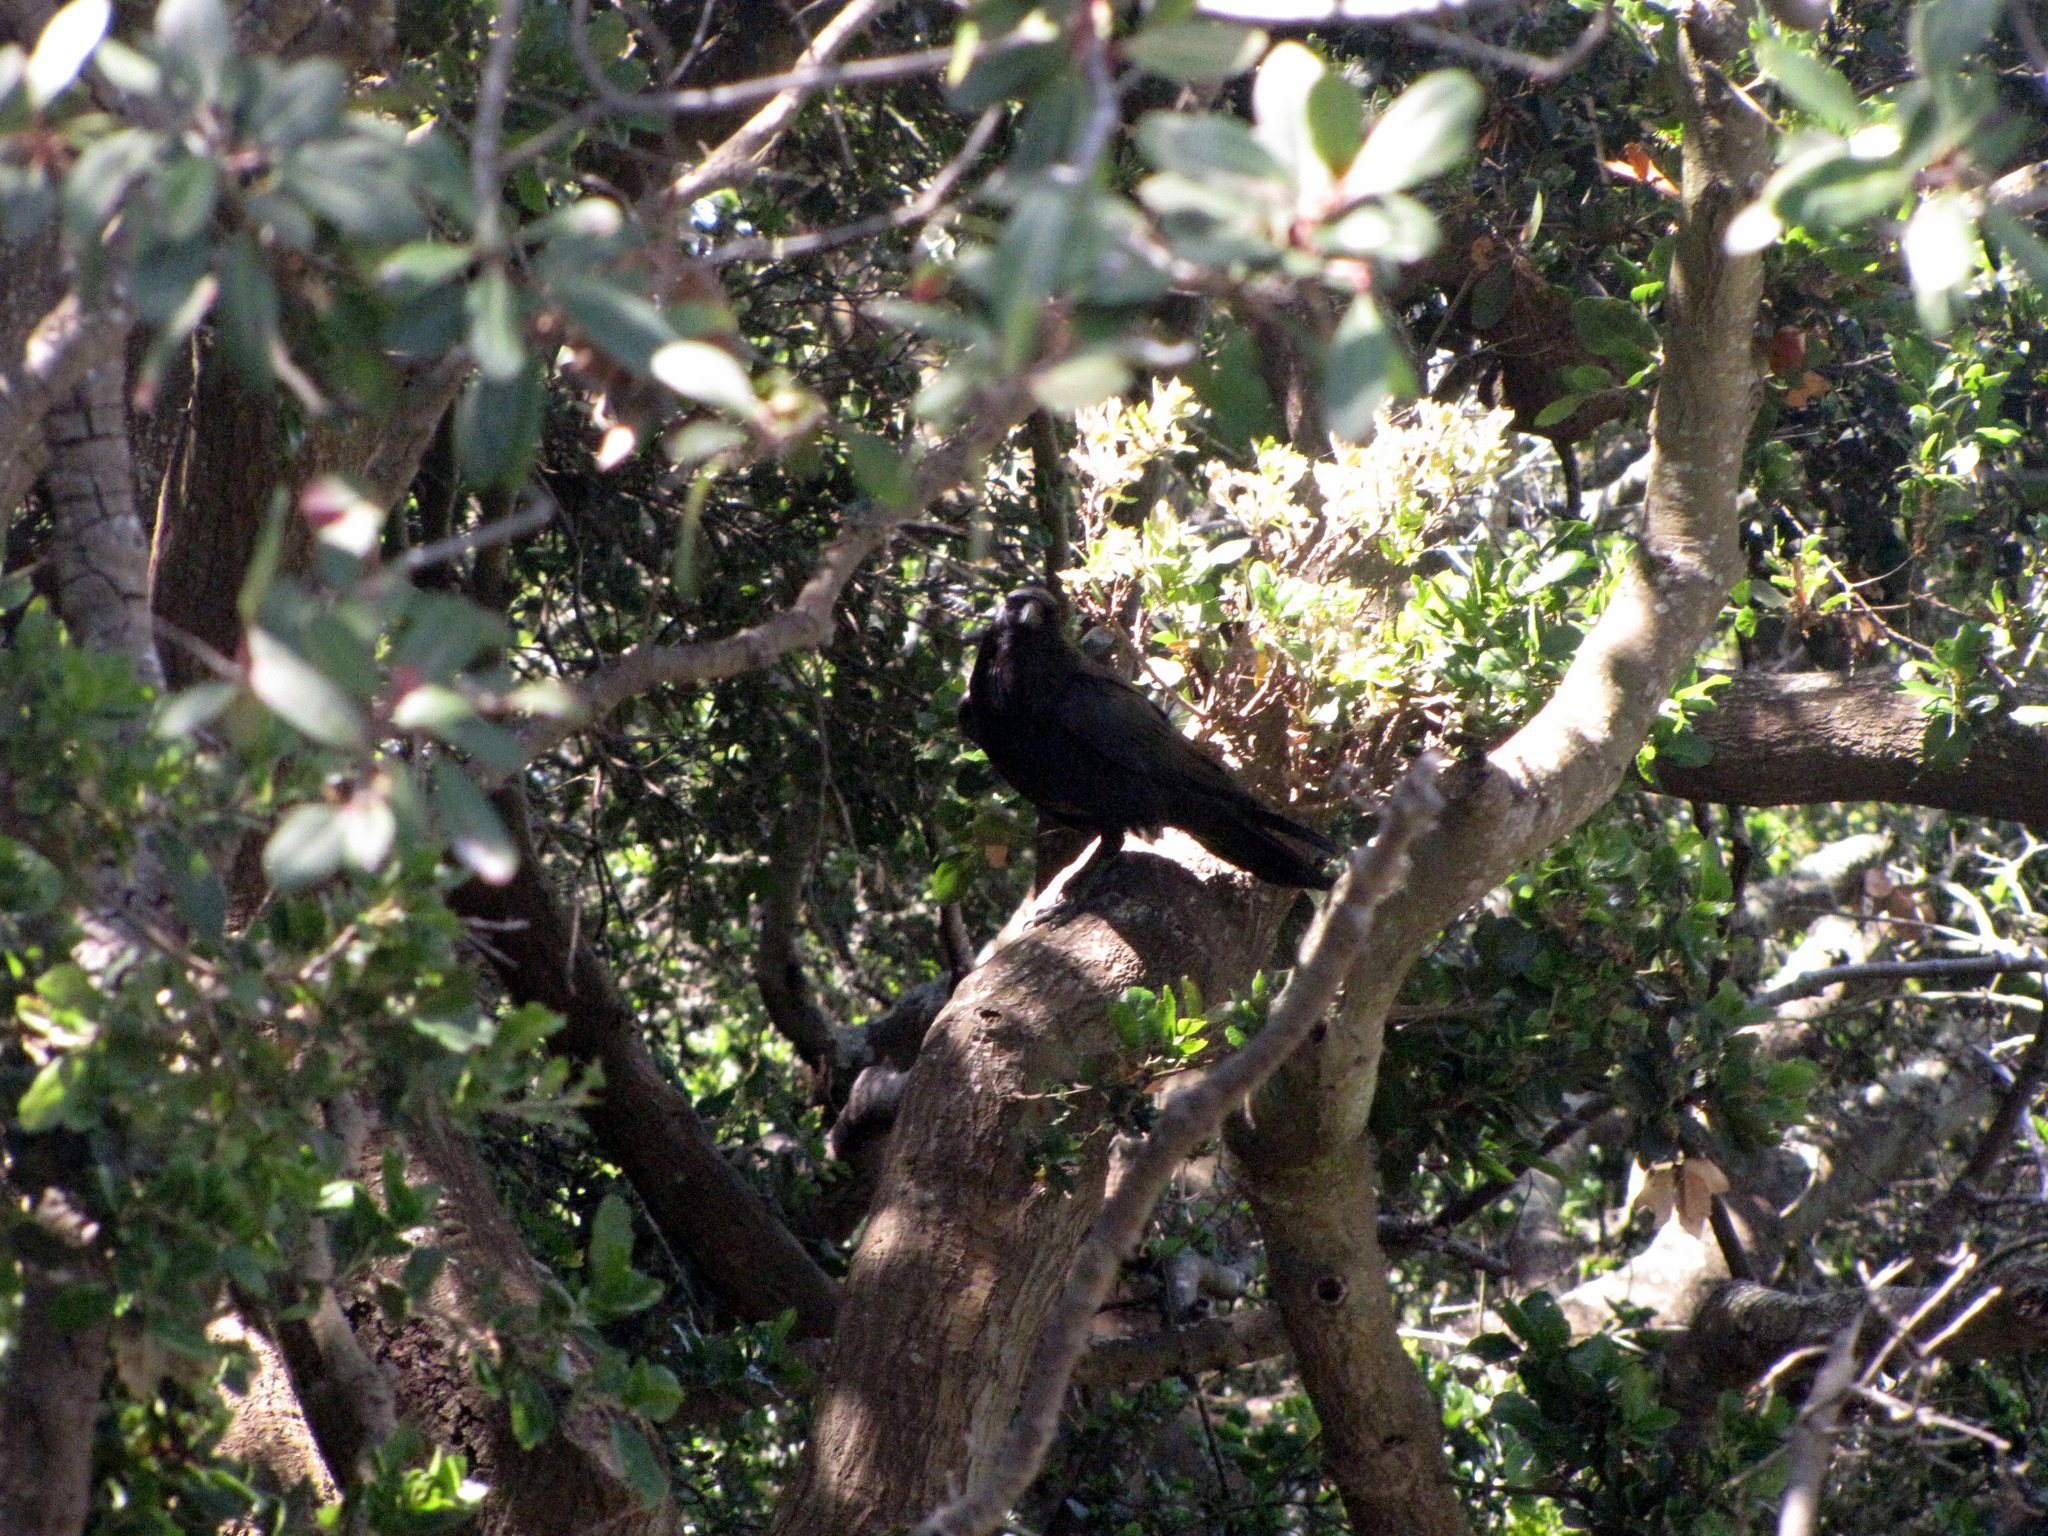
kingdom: Animalia
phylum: Chordata
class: Aves
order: Passeriformes
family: Corvidae
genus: Corvus
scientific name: Corvus corax
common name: Common raven
